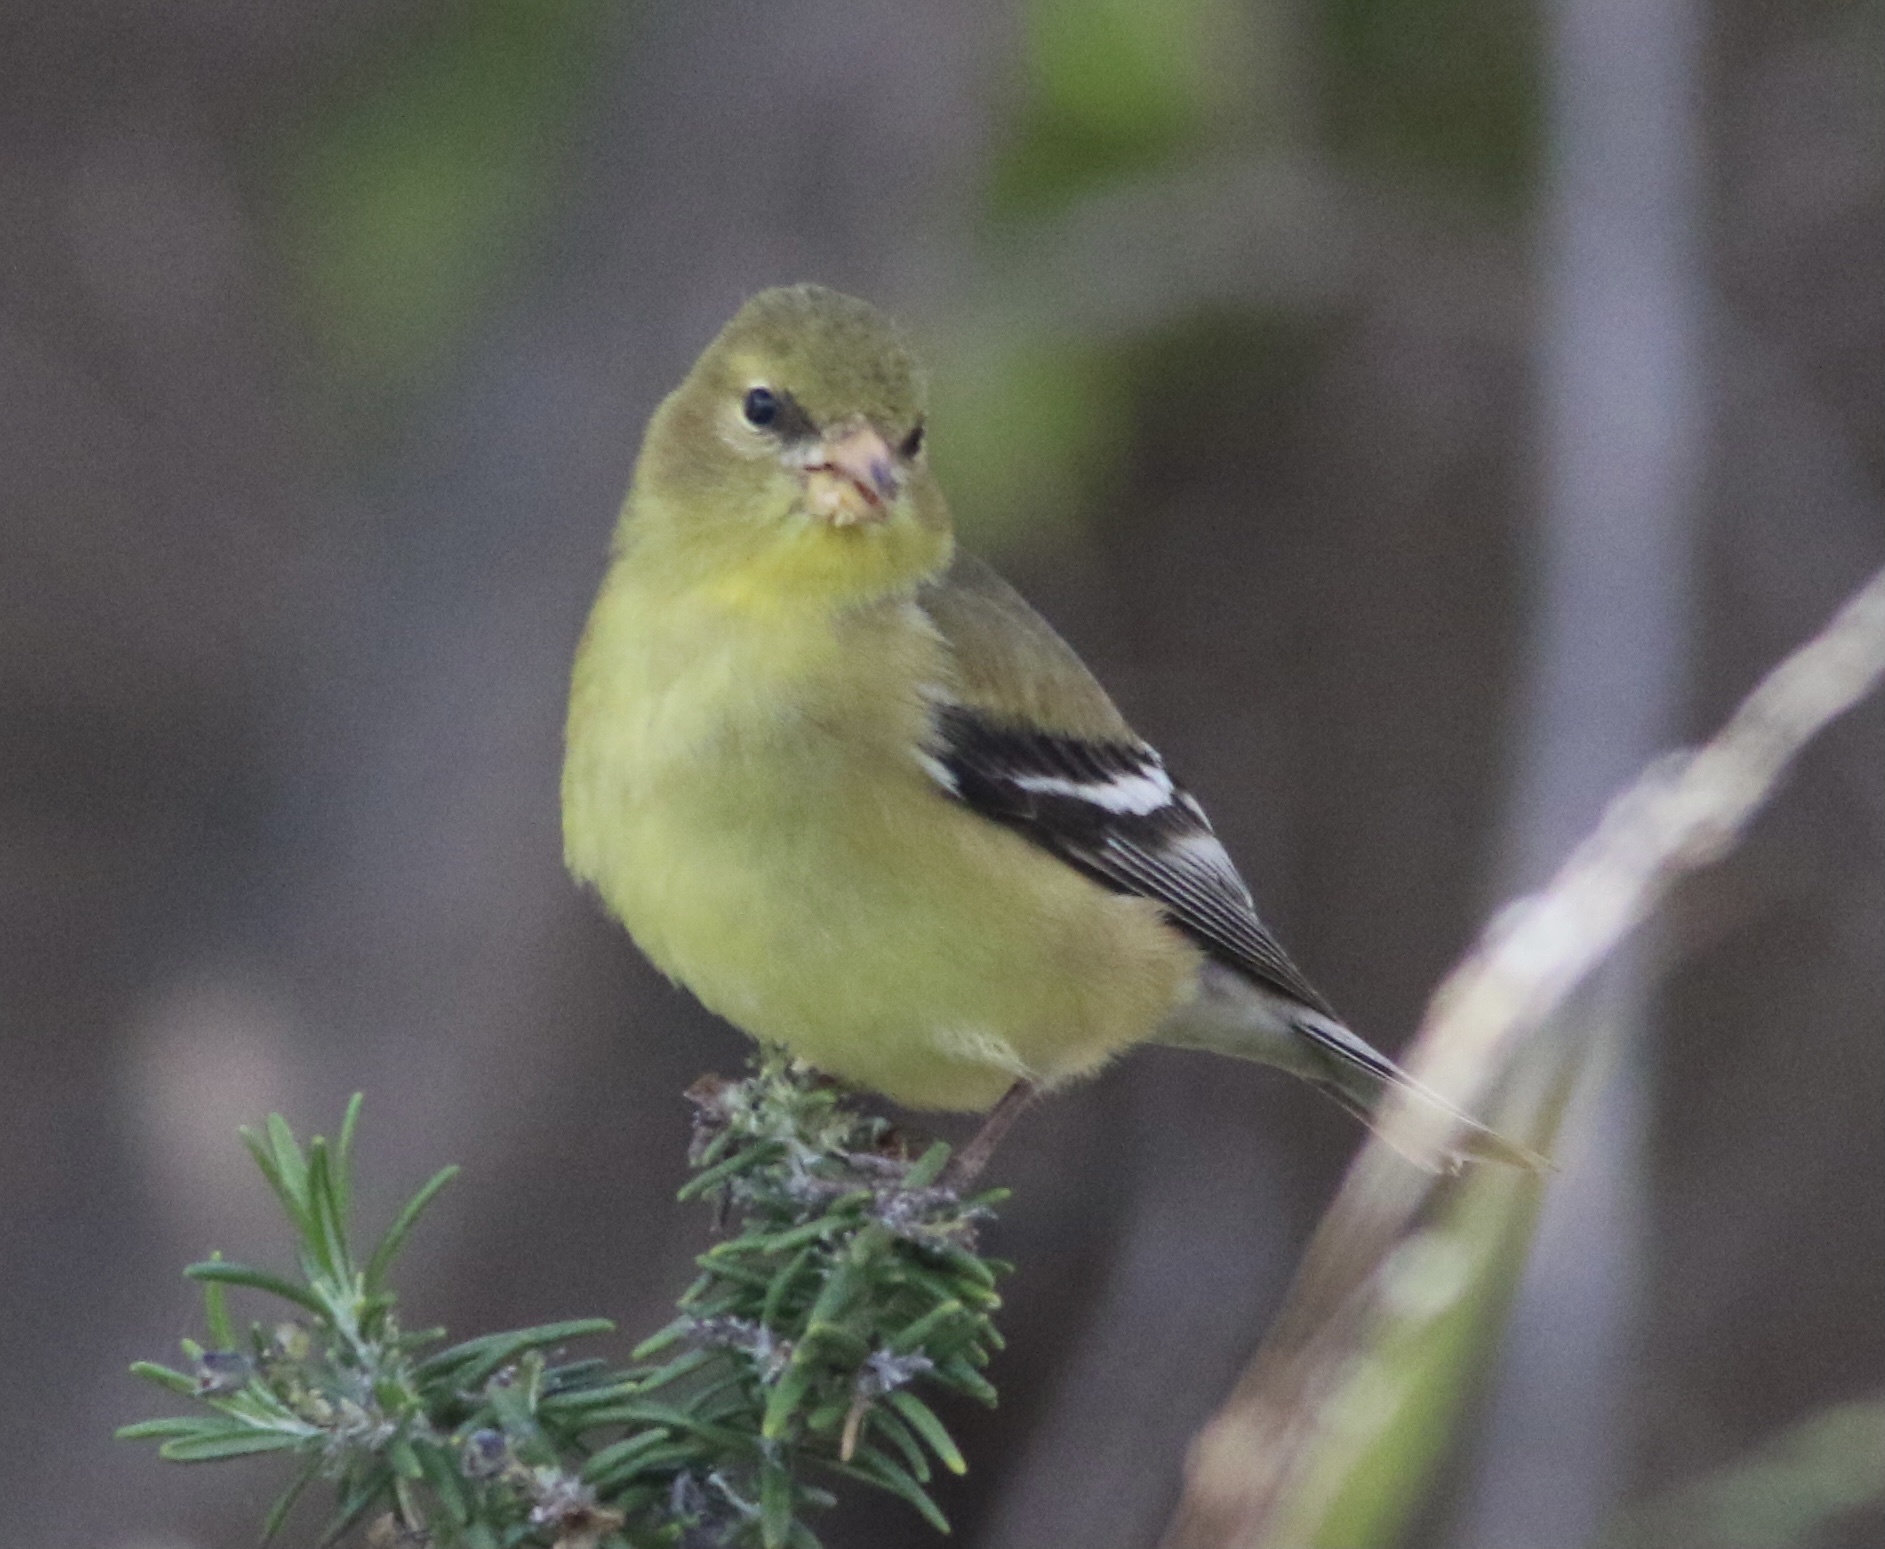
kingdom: Animalia
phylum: Chordata
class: Aves
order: Passeriformes
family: Fringillidae
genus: Spinus
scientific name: Spinus tristis
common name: American goldfinch
